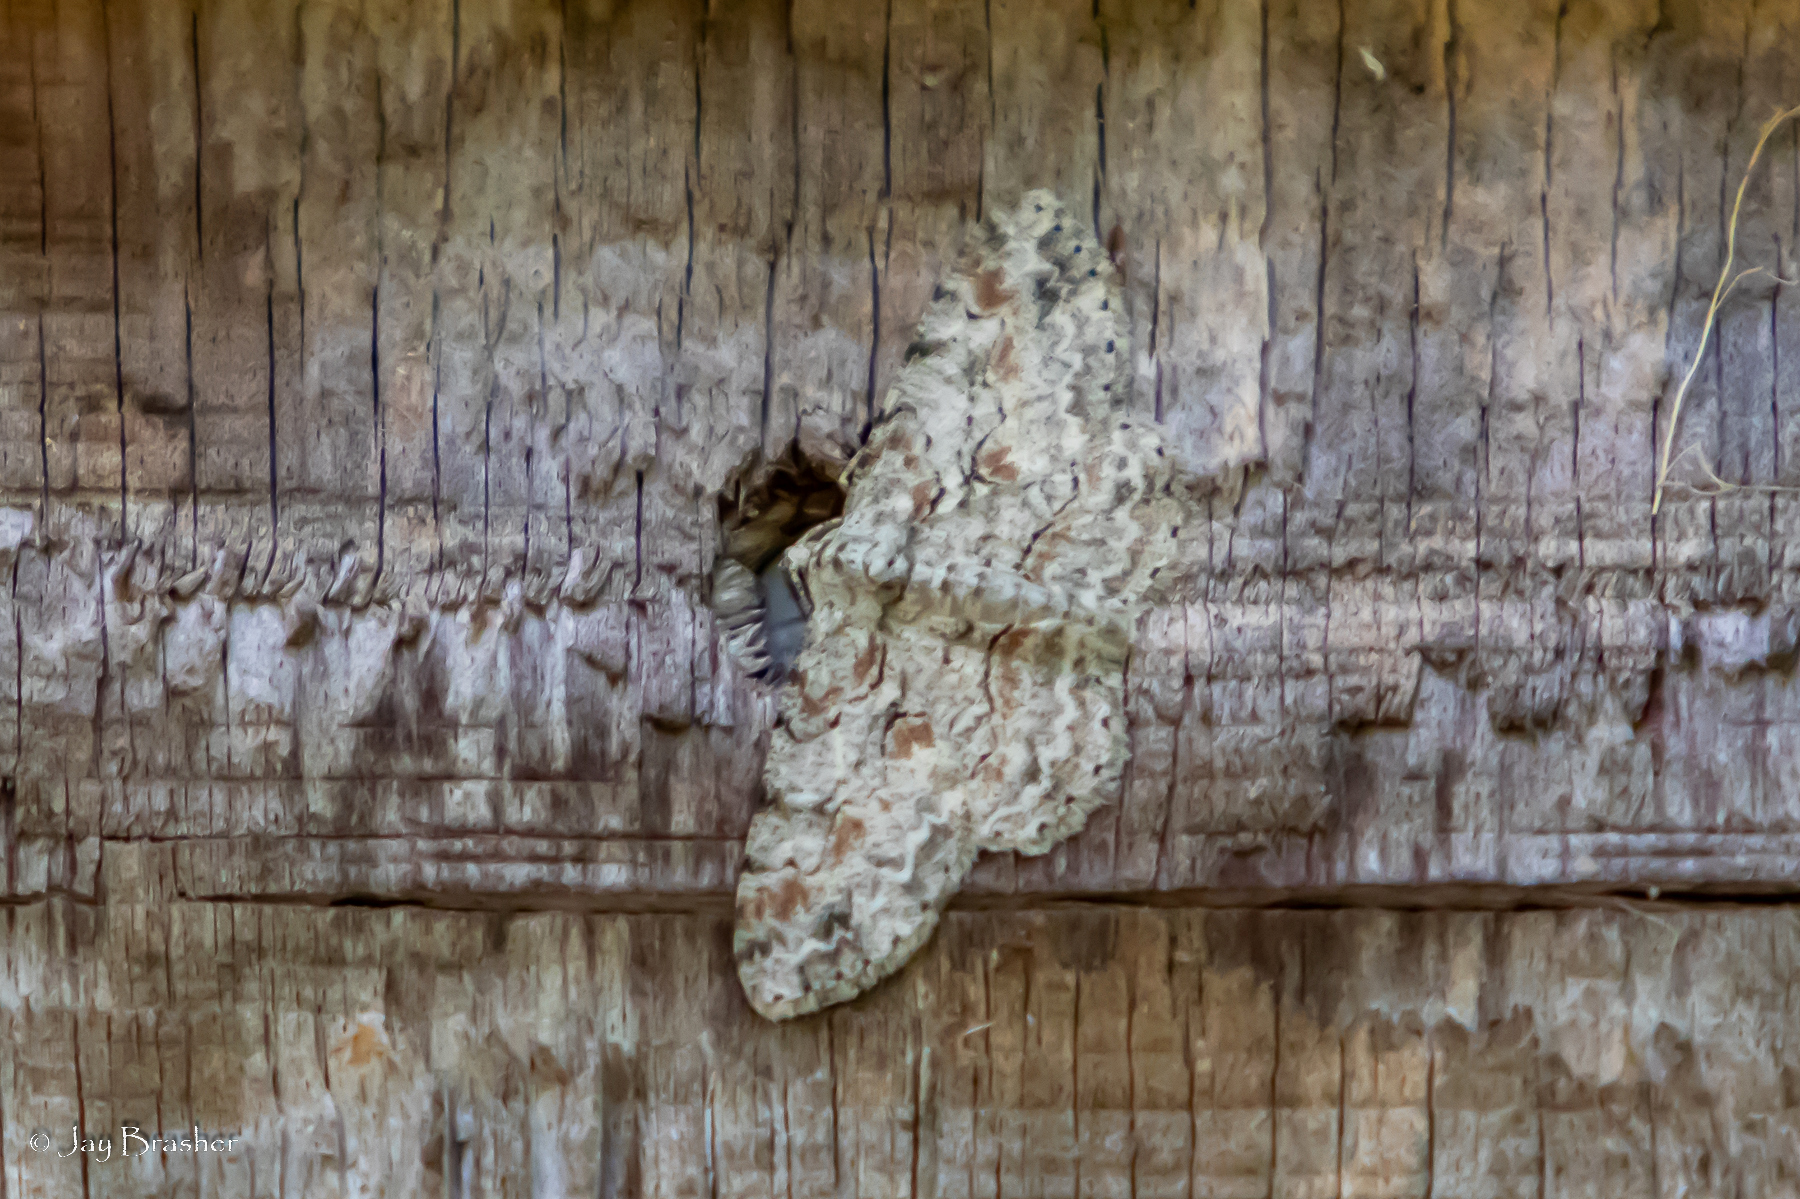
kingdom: Animalia
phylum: Arthropoda
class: Insecta
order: Lepidoptera
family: Geometridae
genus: Iridopsis
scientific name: Iridopsis defectaria
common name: Brown-shaded gray
